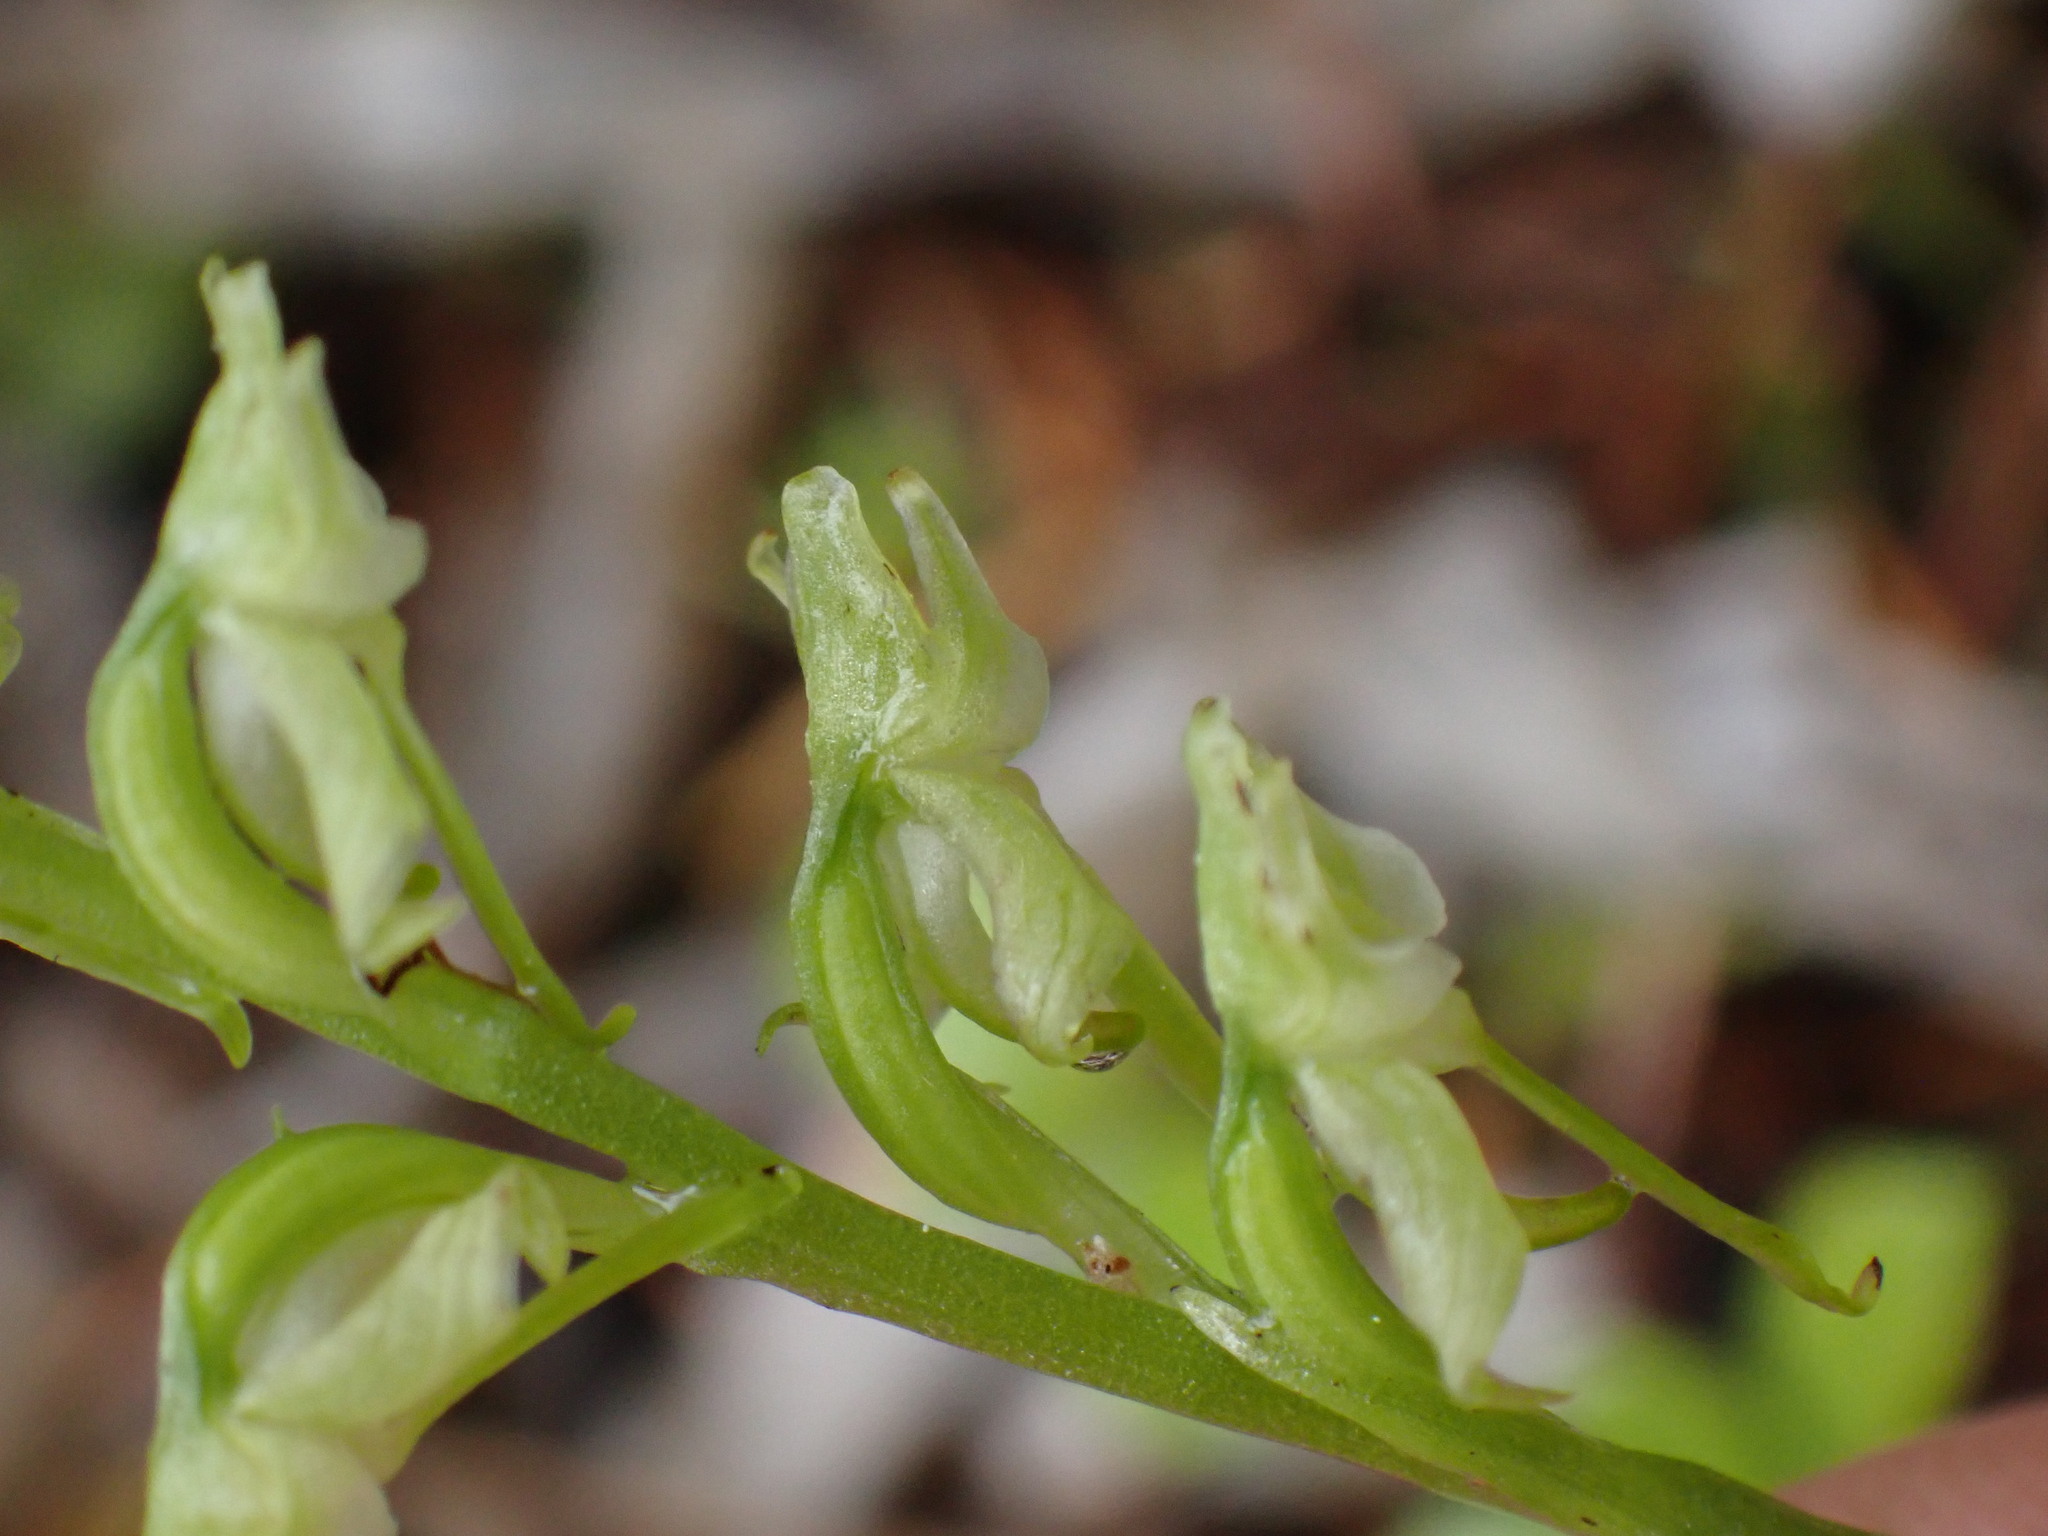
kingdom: Plantae
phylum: Tracheophyta
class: Liliopsida
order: Asparagales
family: Orchidaceae
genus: Platanthera
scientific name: Platanthera obtusata
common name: Blunt bog orchid
